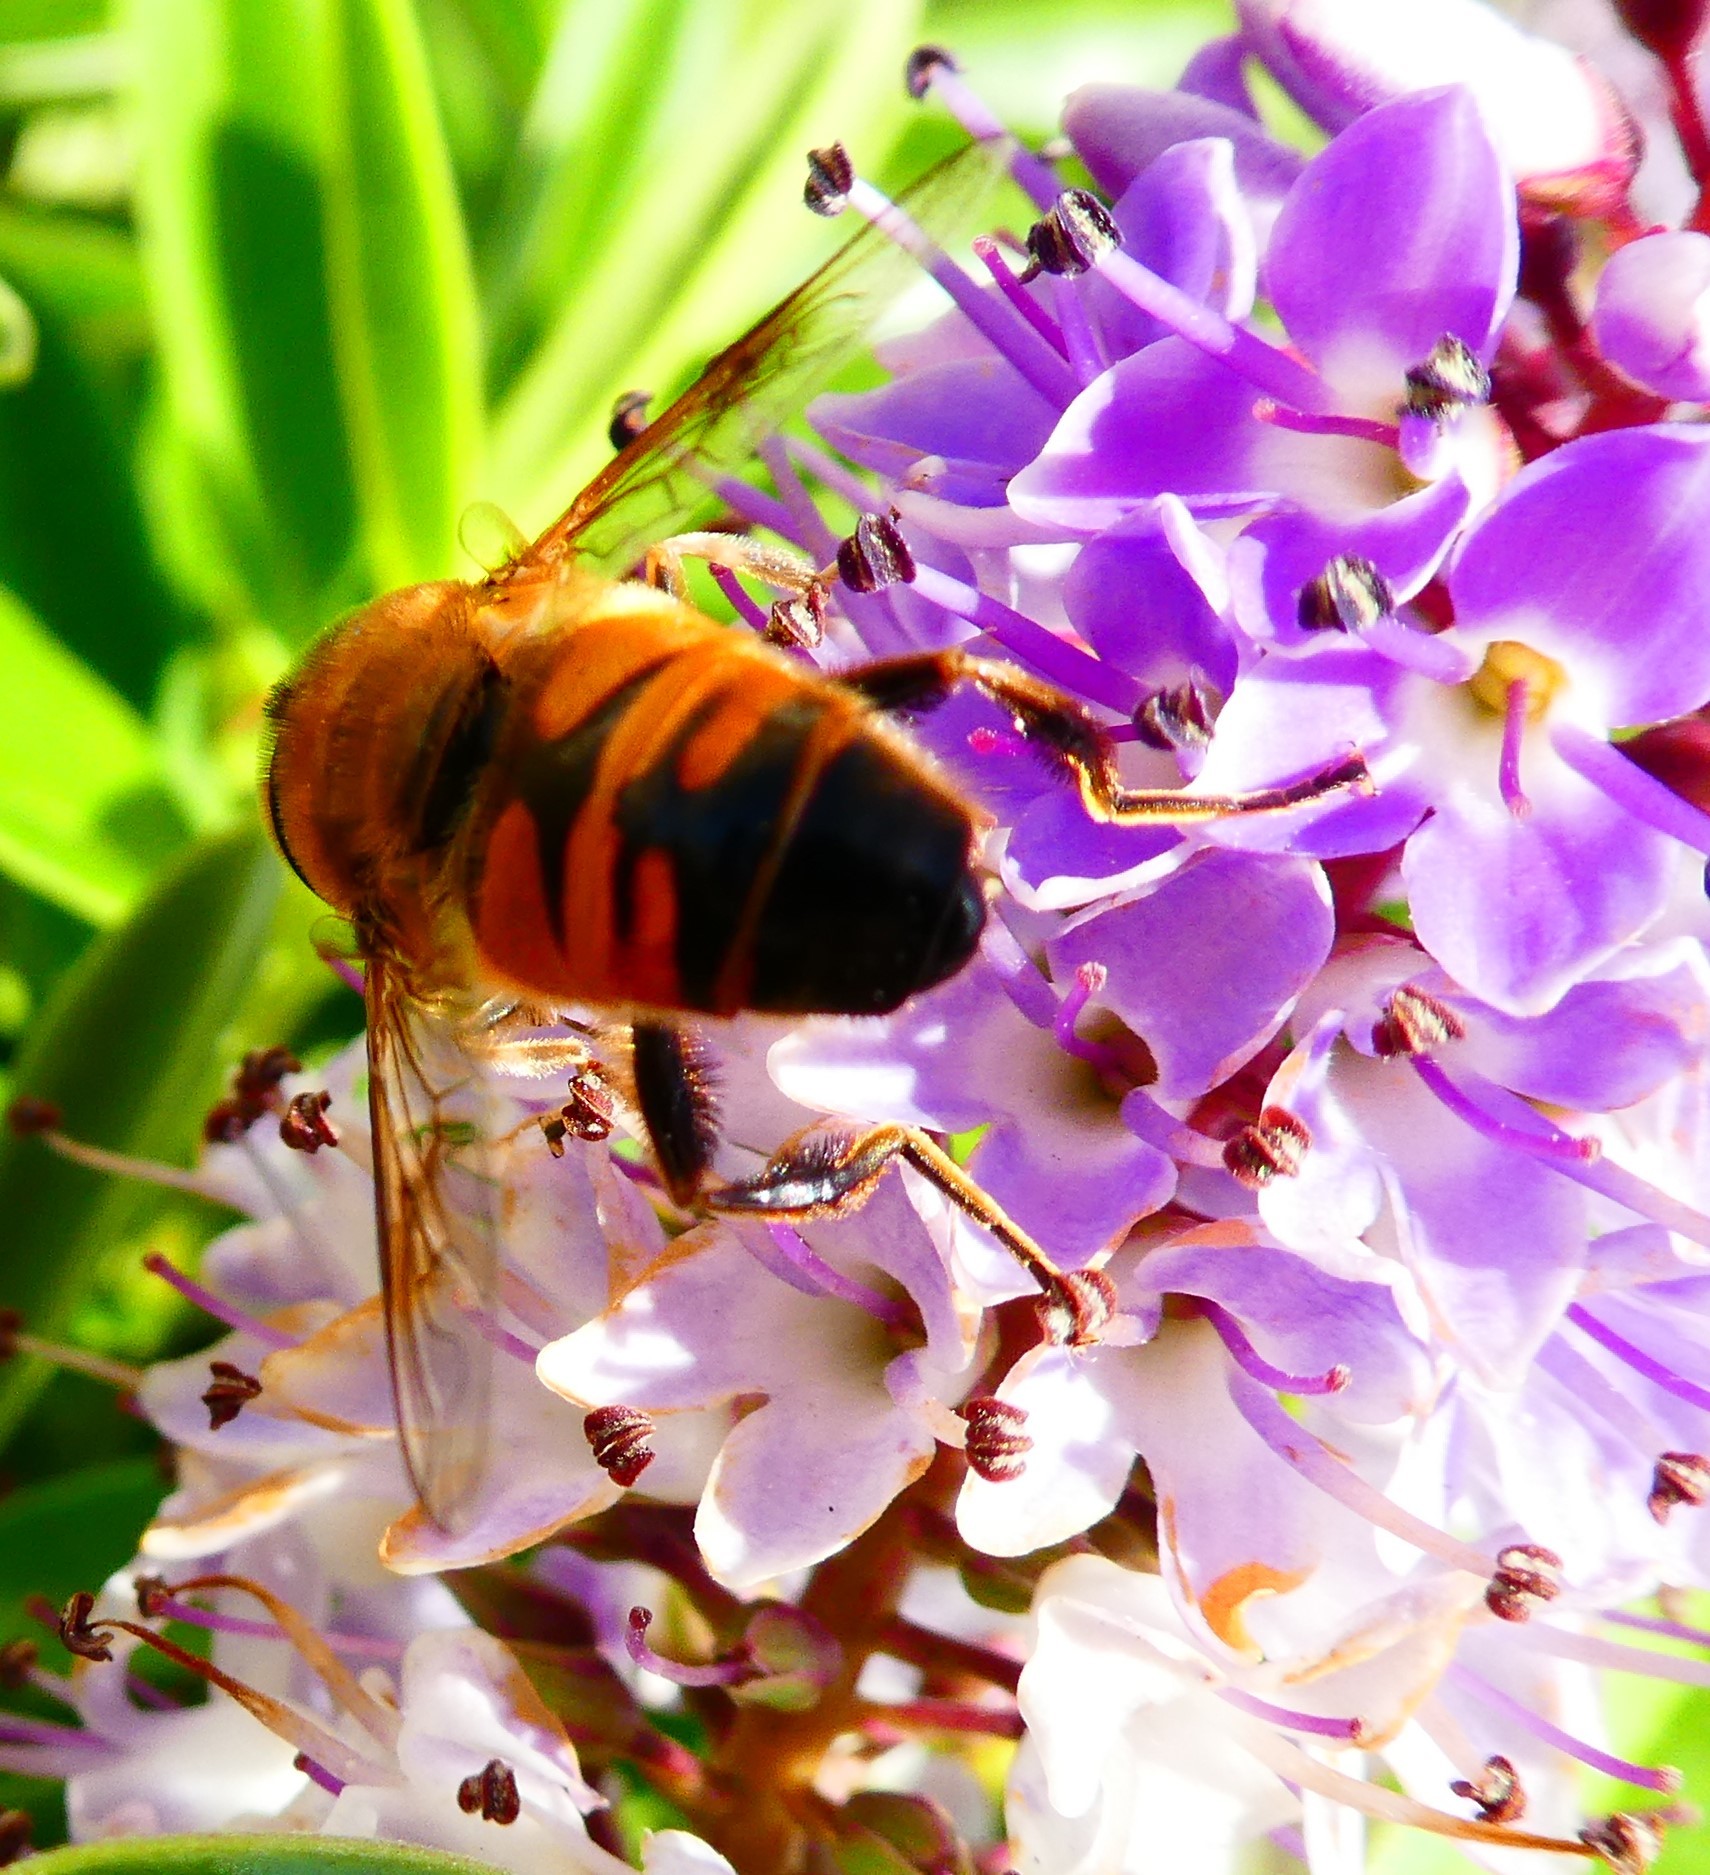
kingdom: Animalia
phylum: Arthropoda
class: Insecta
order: Diptera
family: Syrphidae
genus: Eristalis
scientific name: Eristalis tenax
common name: Drone fly
